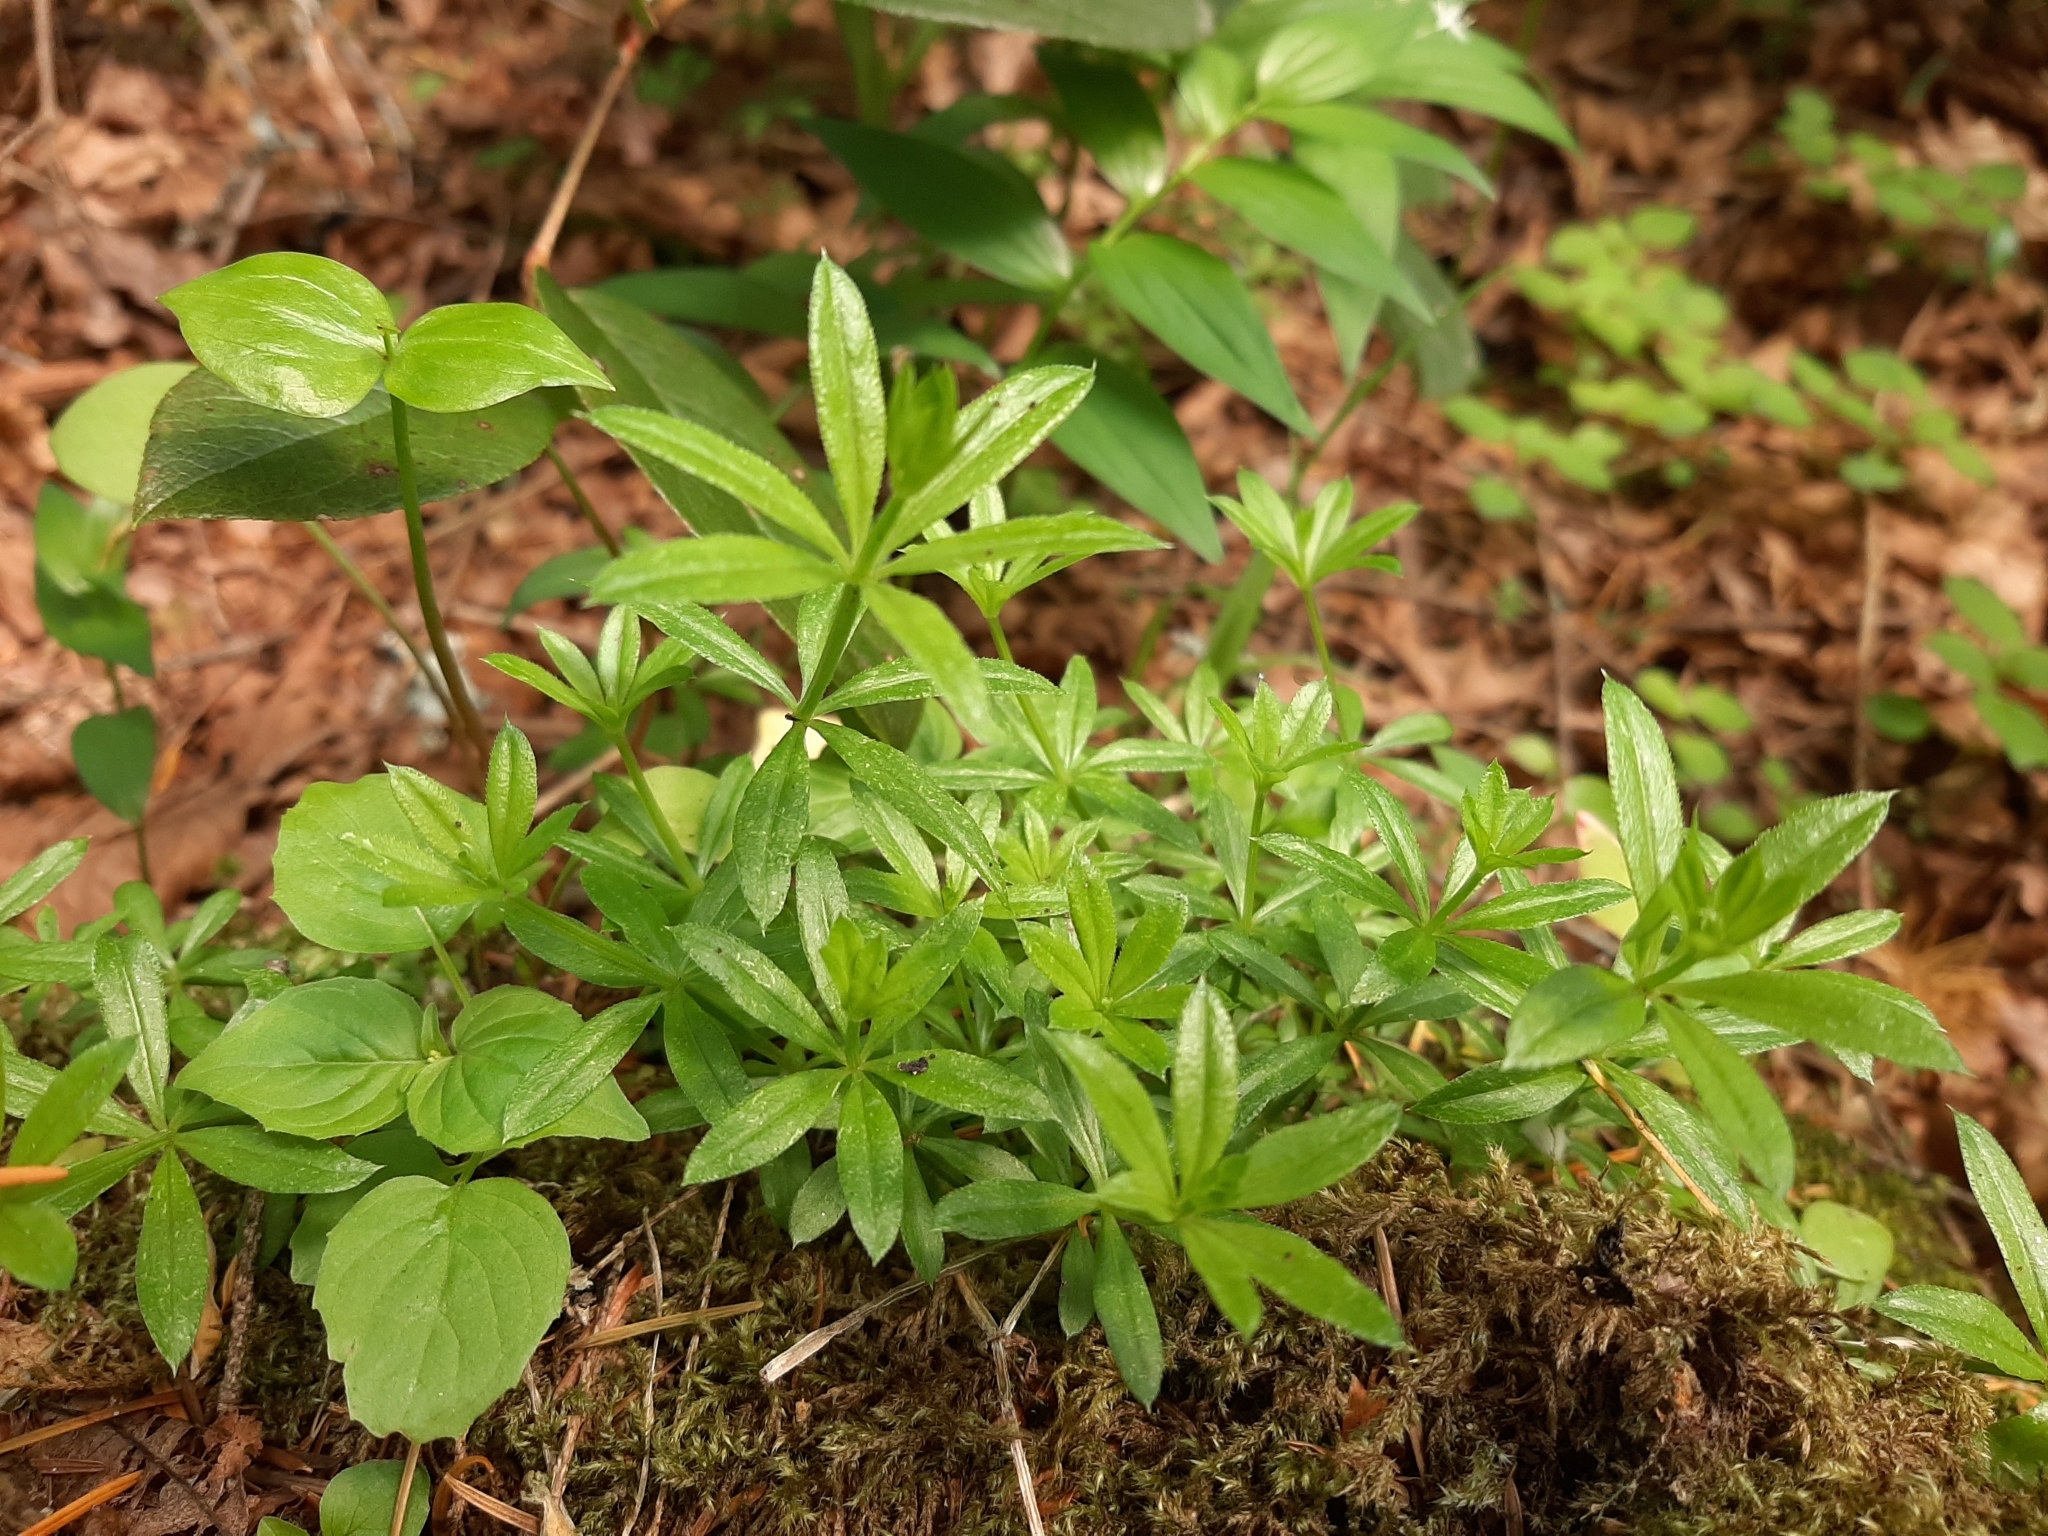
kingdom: Plantae
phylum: Tracheophyta
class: Magnoliopsida
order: Gentianales
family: Rubiaceae
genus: Galium
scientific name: Galium triflorum
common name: Fragrant bedstraw
